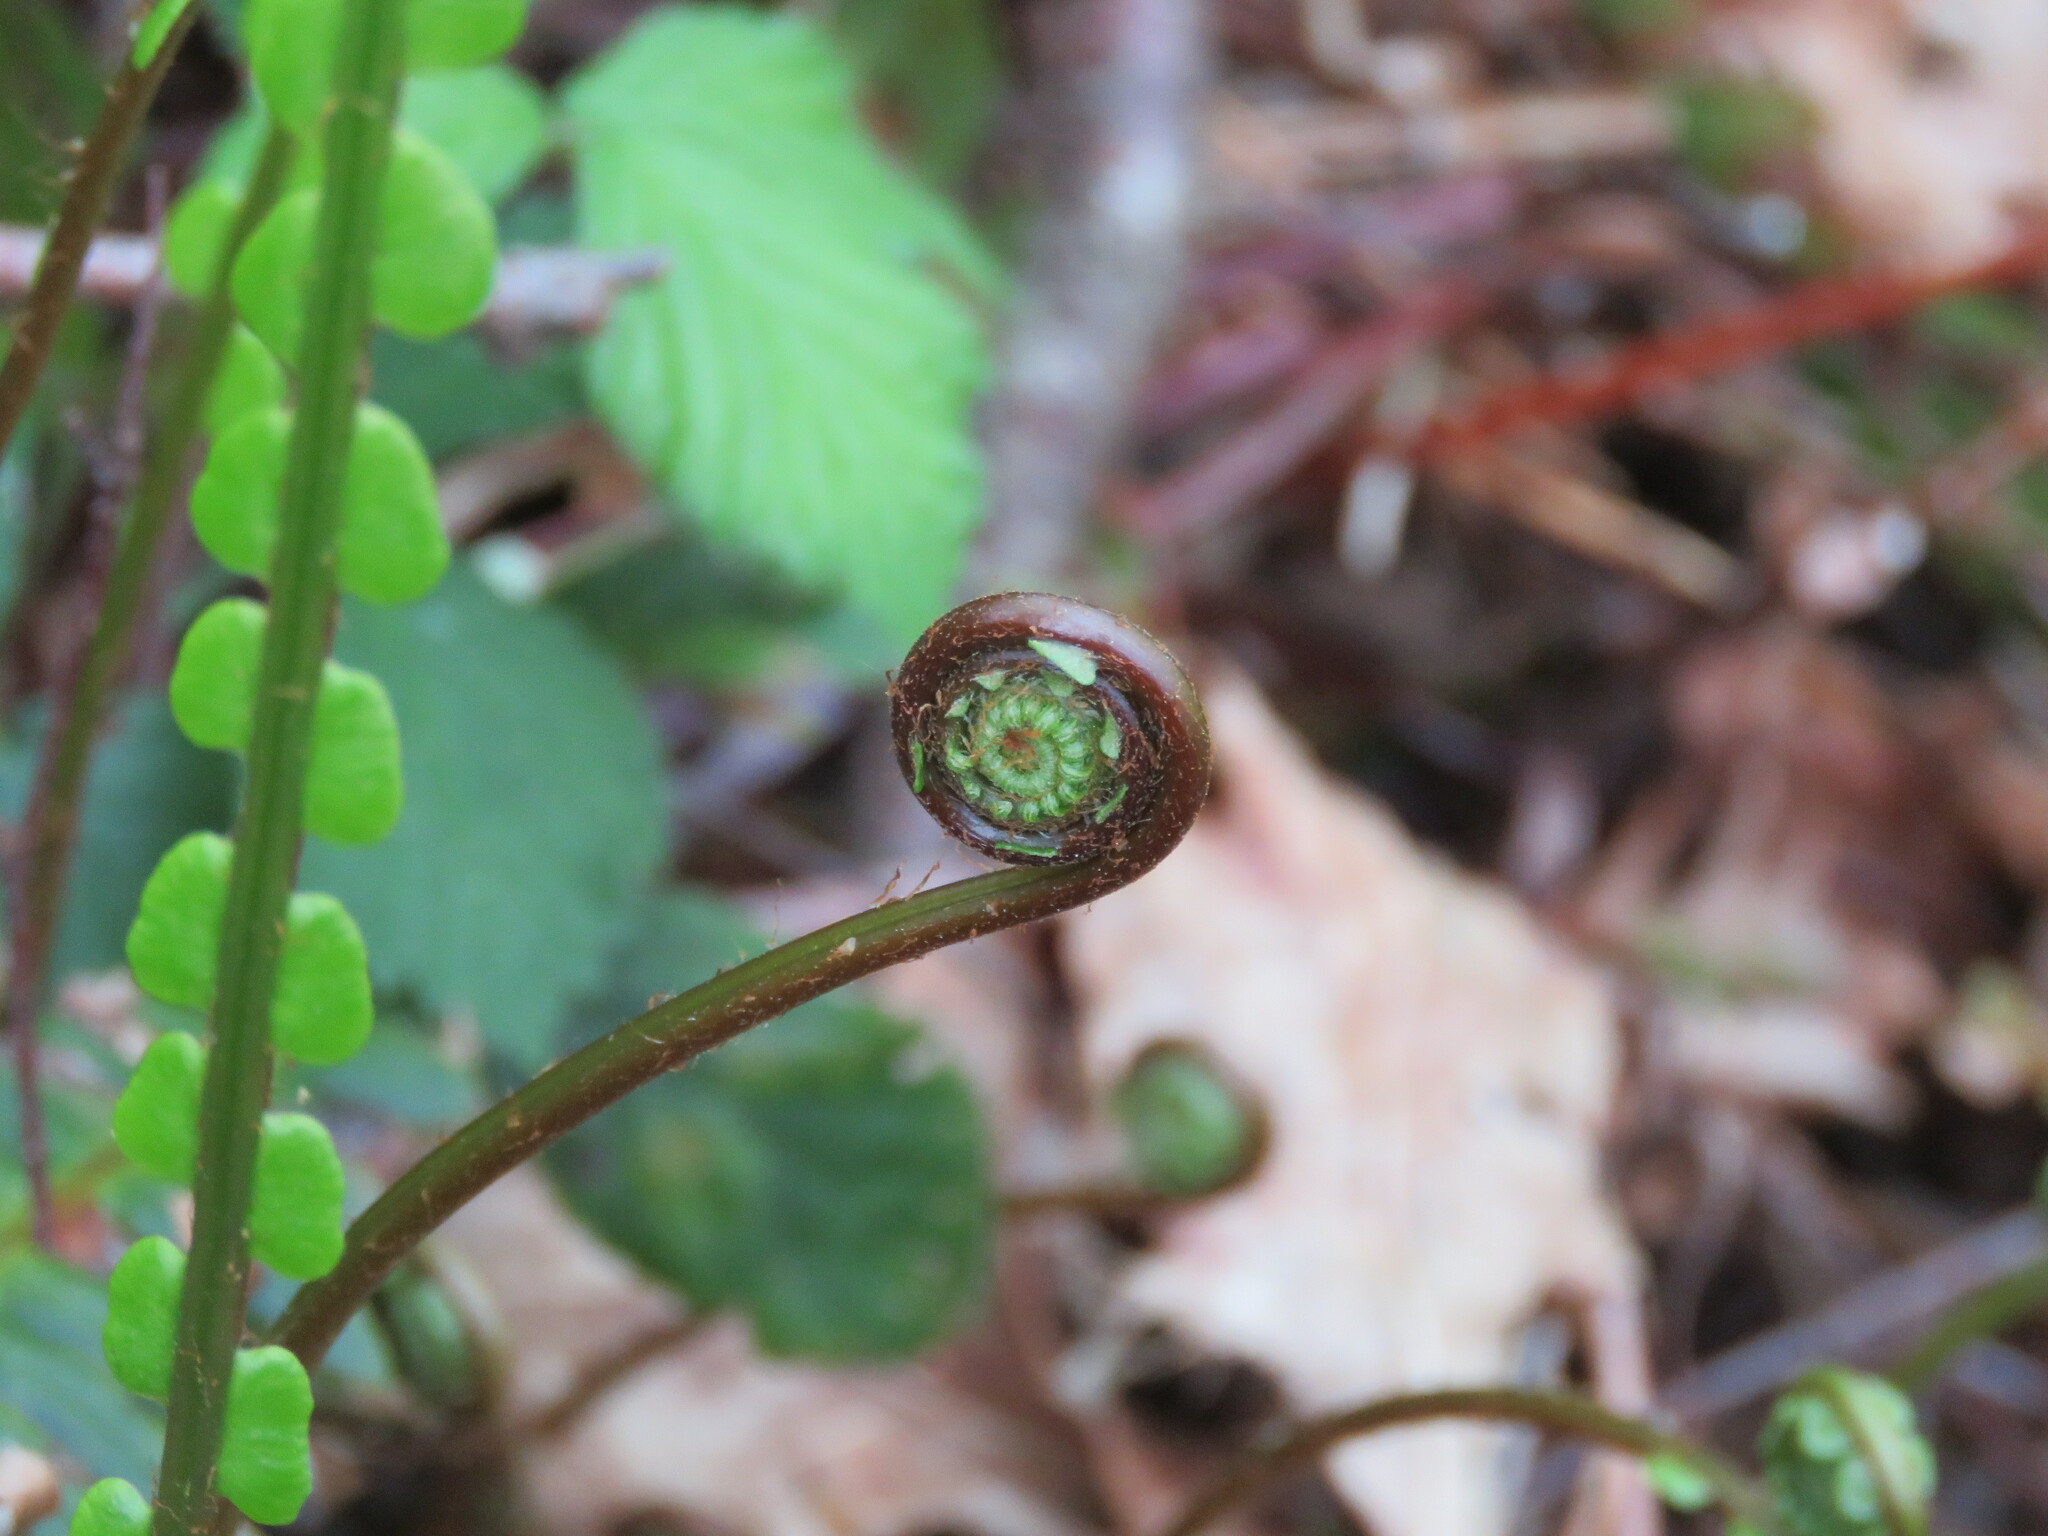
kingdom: Plantae
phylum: Tracheophyta
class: Polypodiopsida
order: Polypodiales
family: Blechnaceae
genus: Struthiopteris
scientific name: Struthiopteris spicant
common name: Deer fern
